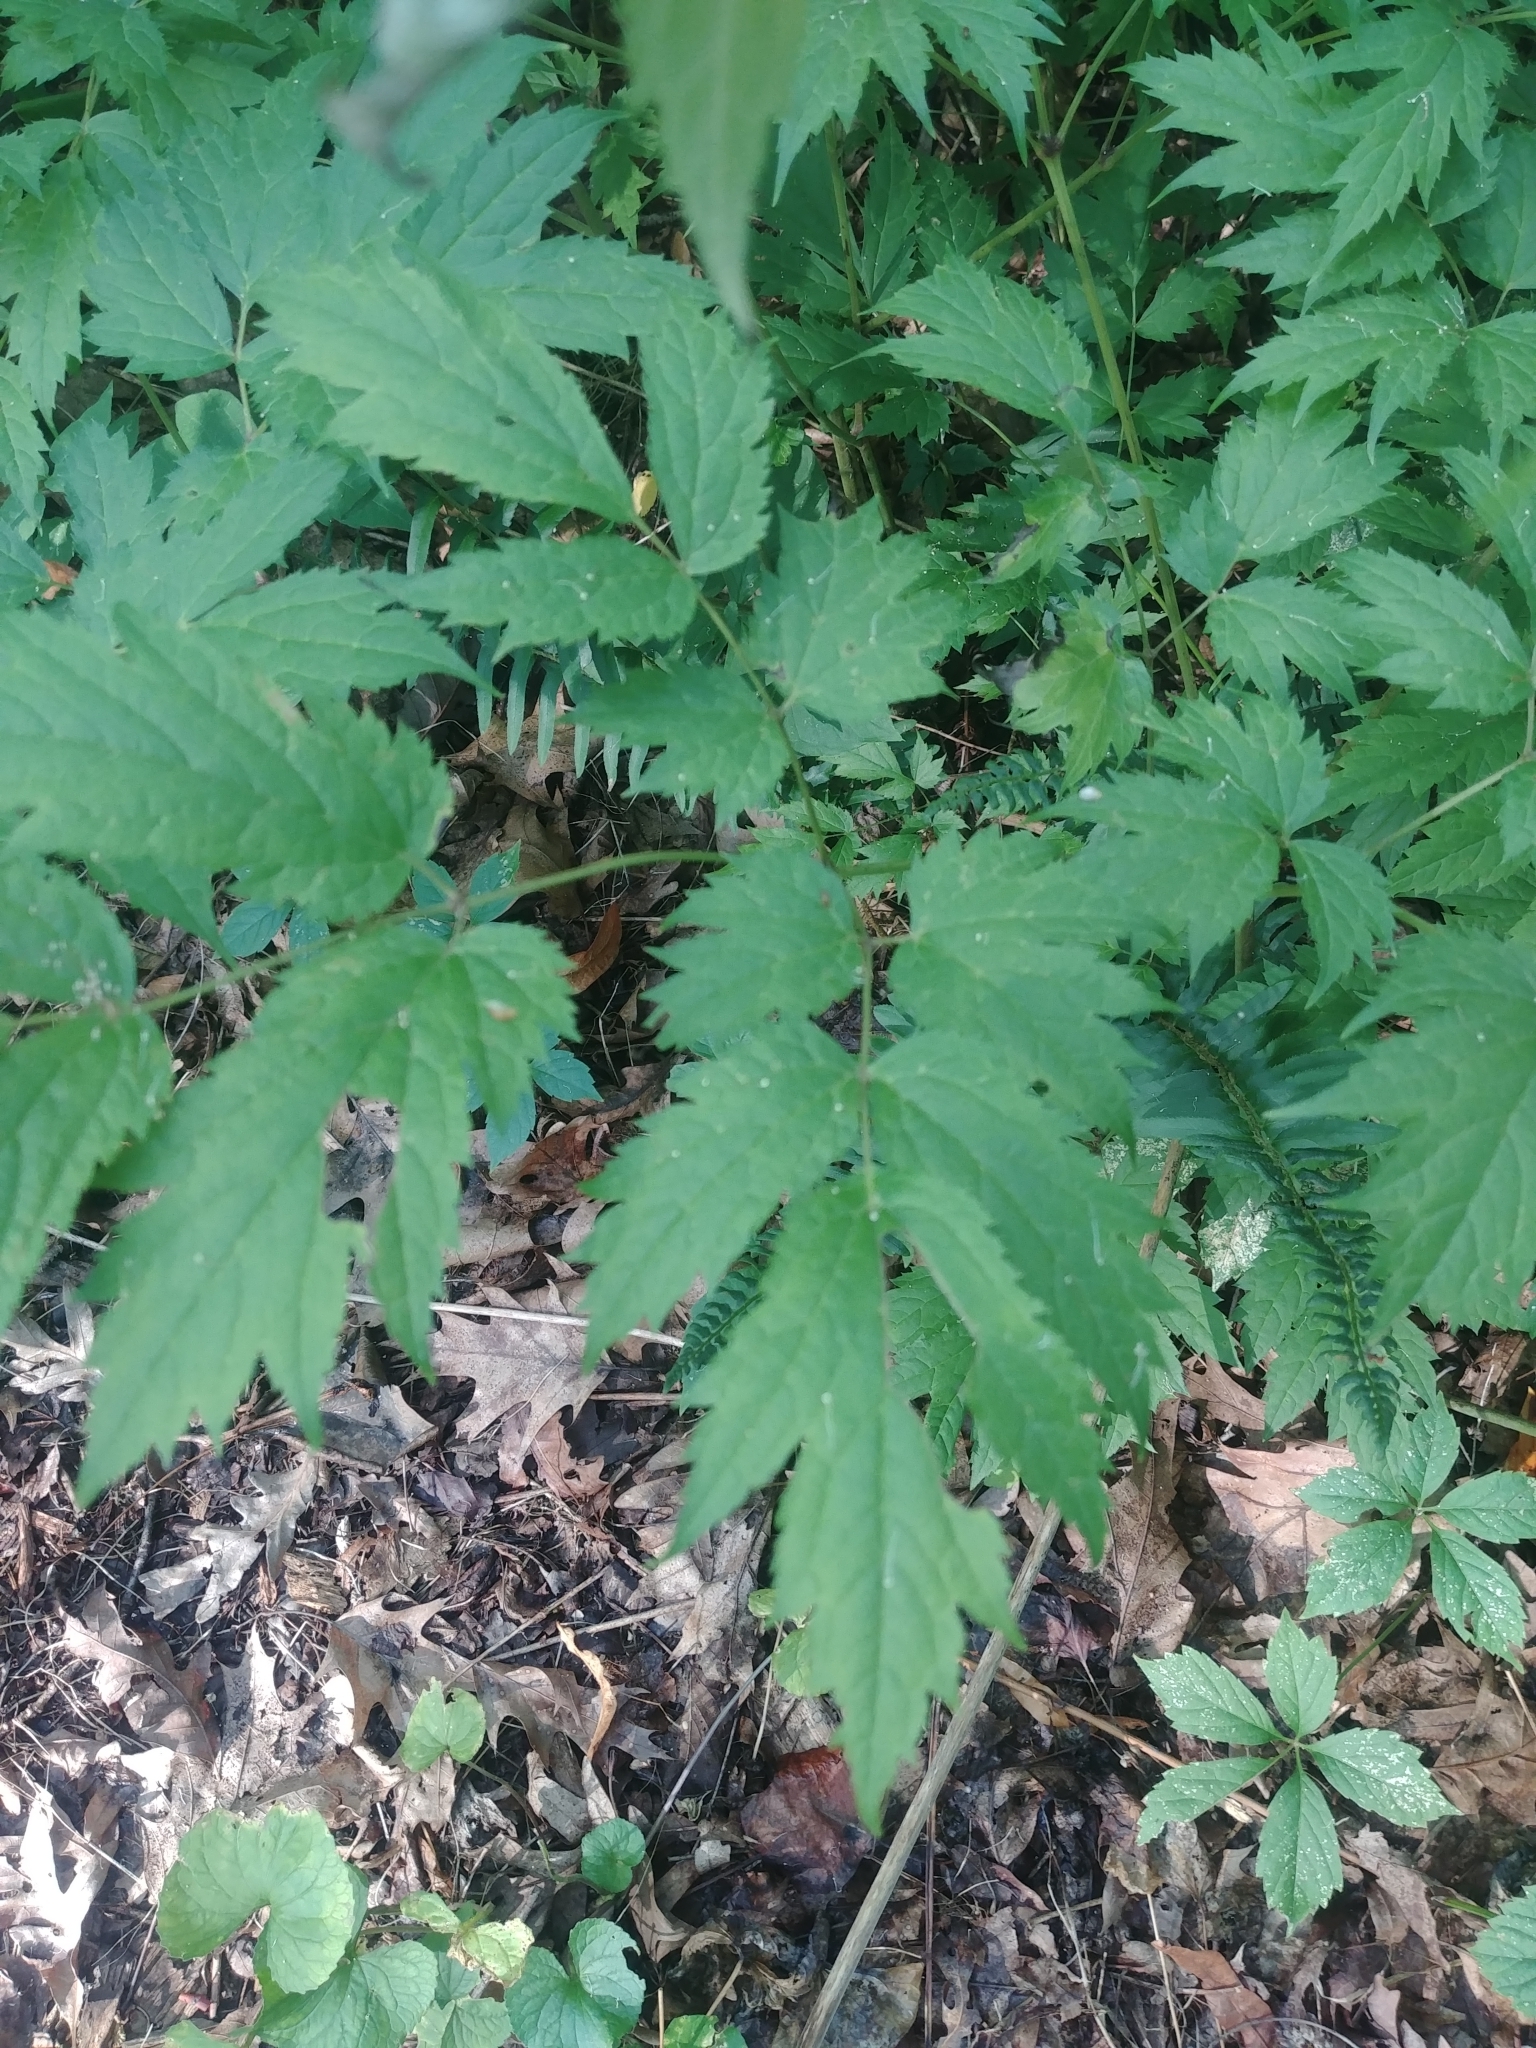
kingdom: Plantae
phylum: Tracheophyta
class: Magnoliopsida
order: Ranunculales
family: Ranunculaceae
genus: Actaea
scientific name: Actaea racemosa
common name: Black cohosh
